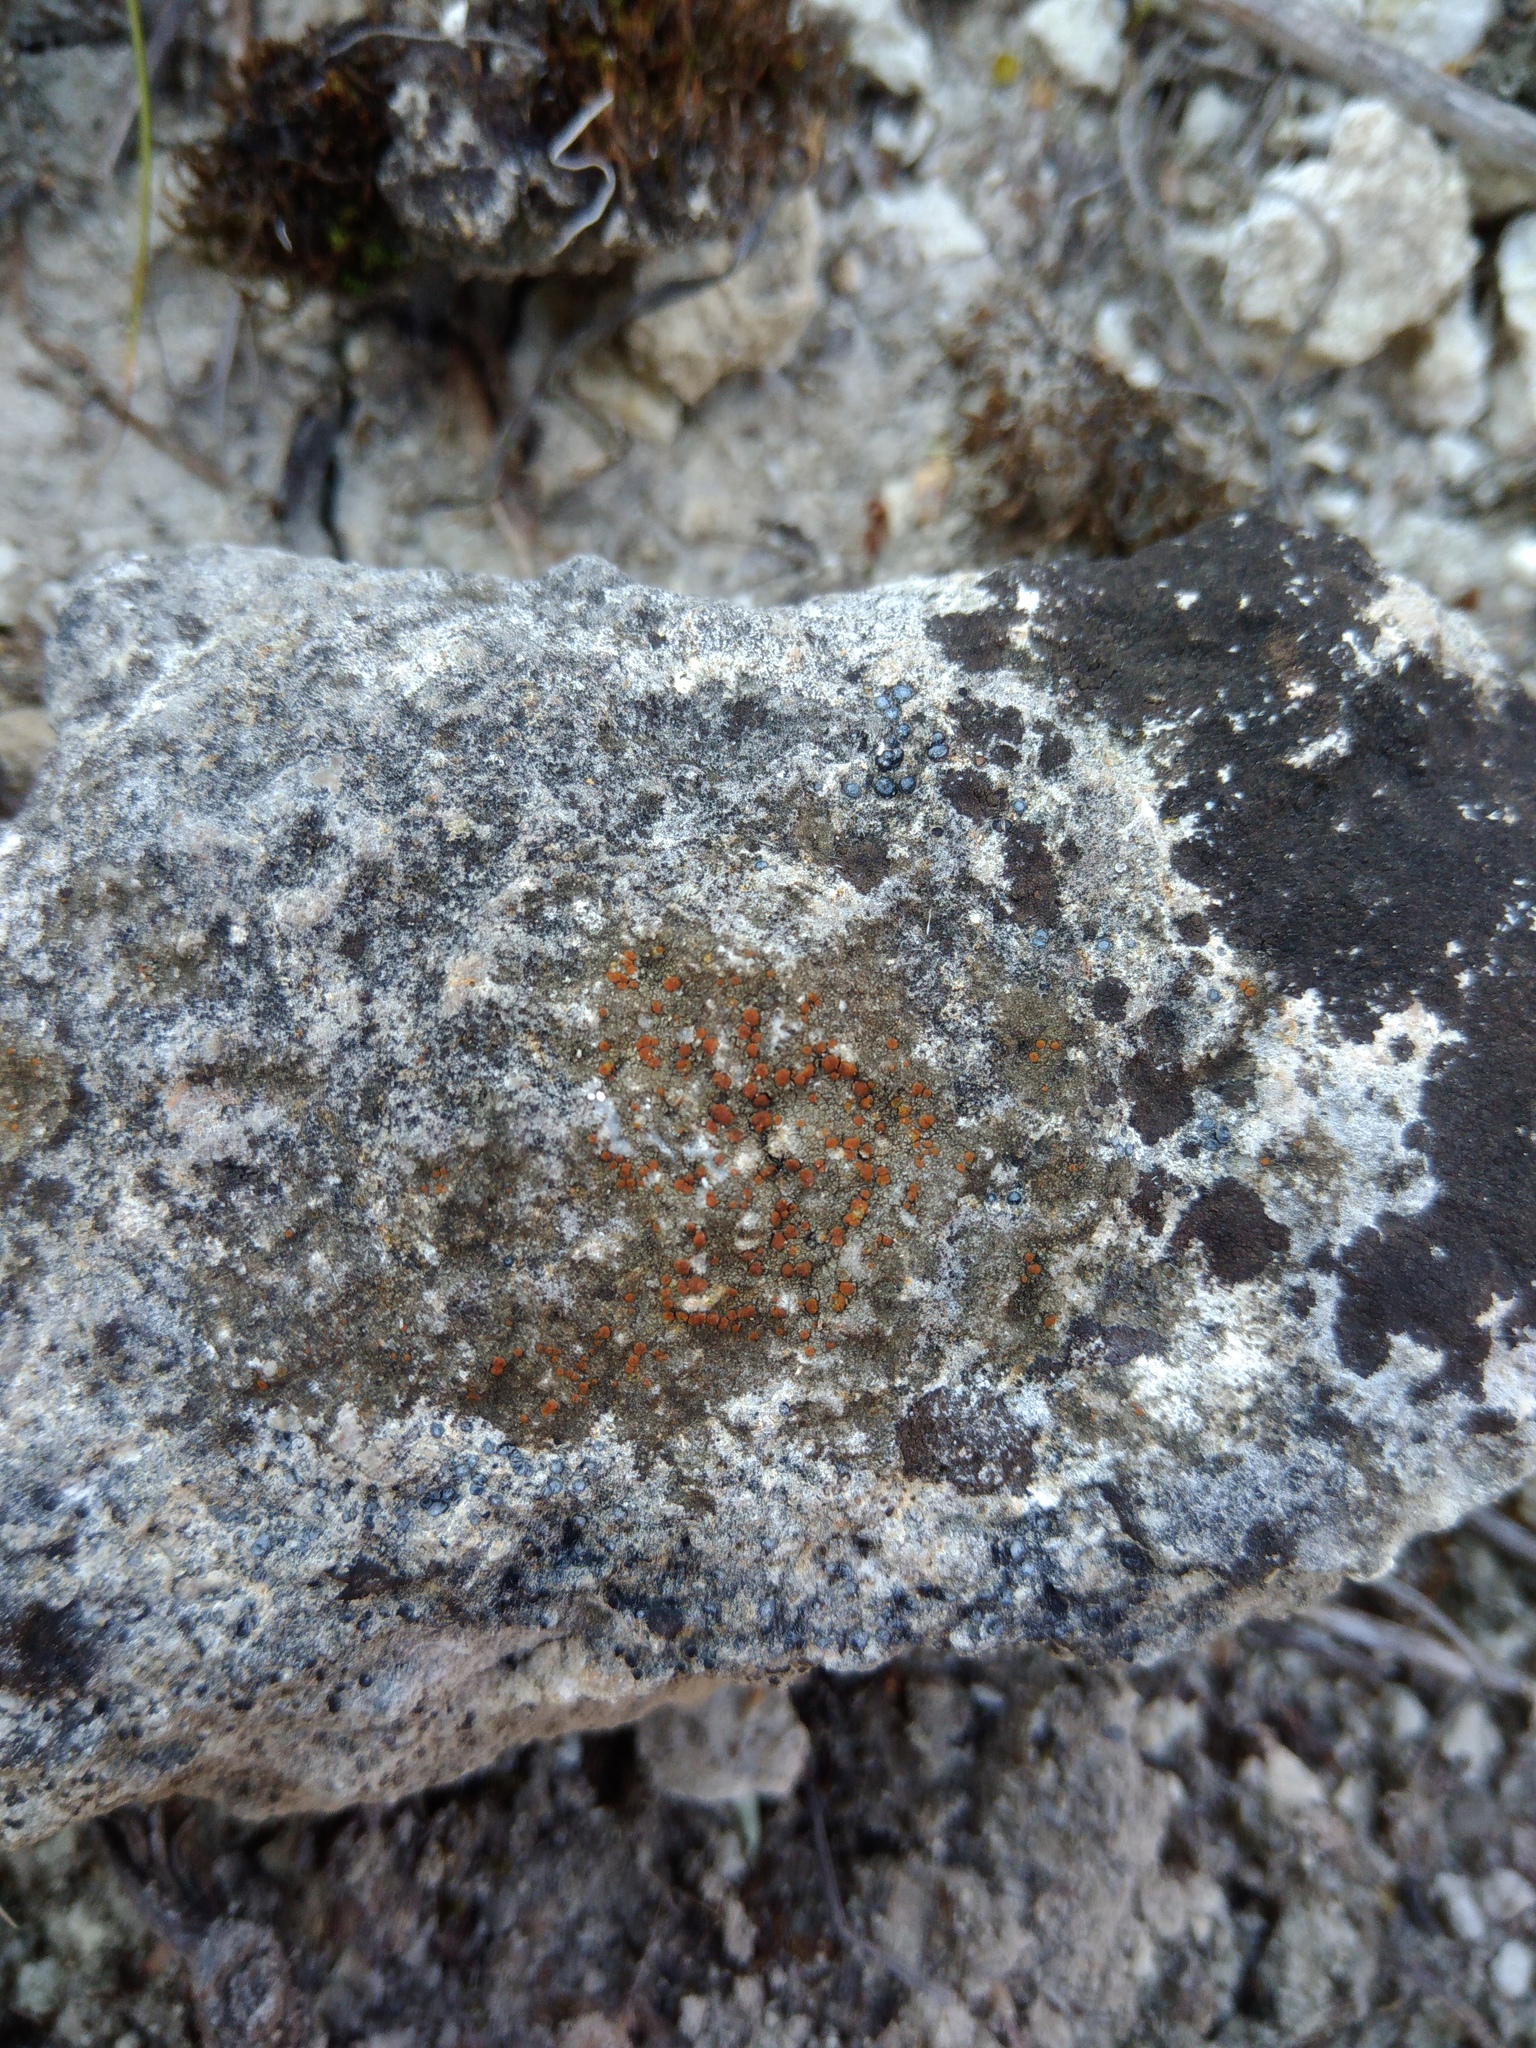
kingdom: Fungi
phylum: Ascomycota
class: Lecanoromycetes
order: Lecanorales
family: Psoraceae
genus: Protoblastenia
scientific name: Protoblastenia rupestris
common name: Chewing gum lichen
